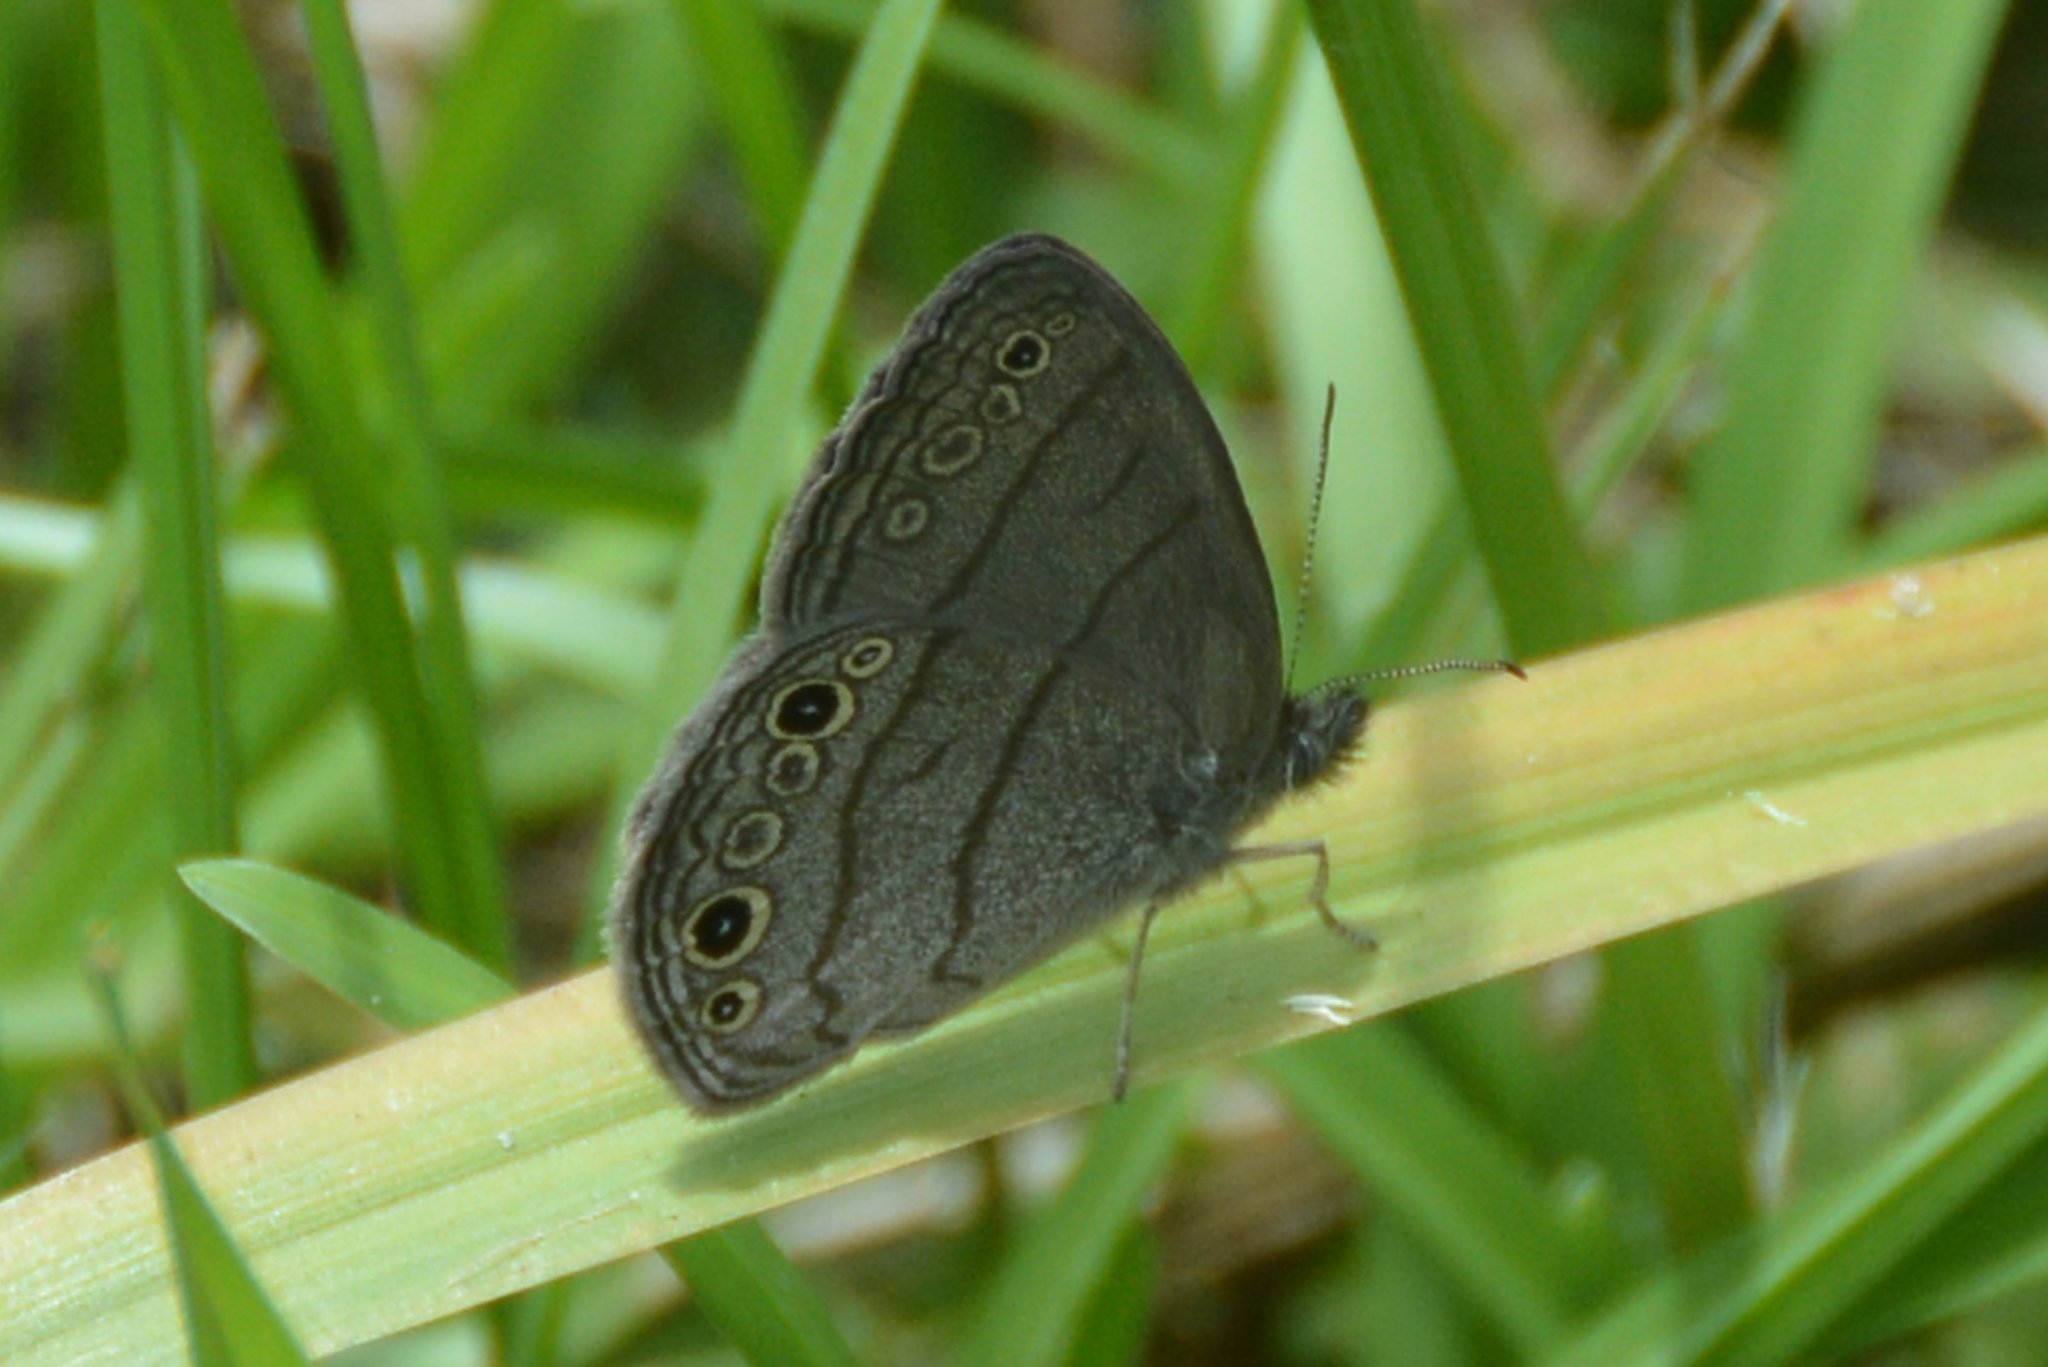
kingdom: Animalia
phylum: Arthropoda
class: Insecta
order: Lepidoptera
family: Nymphalidae
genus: Hermeuptychia
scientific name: Hermeuptychia hermes
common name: Hermes satyr
